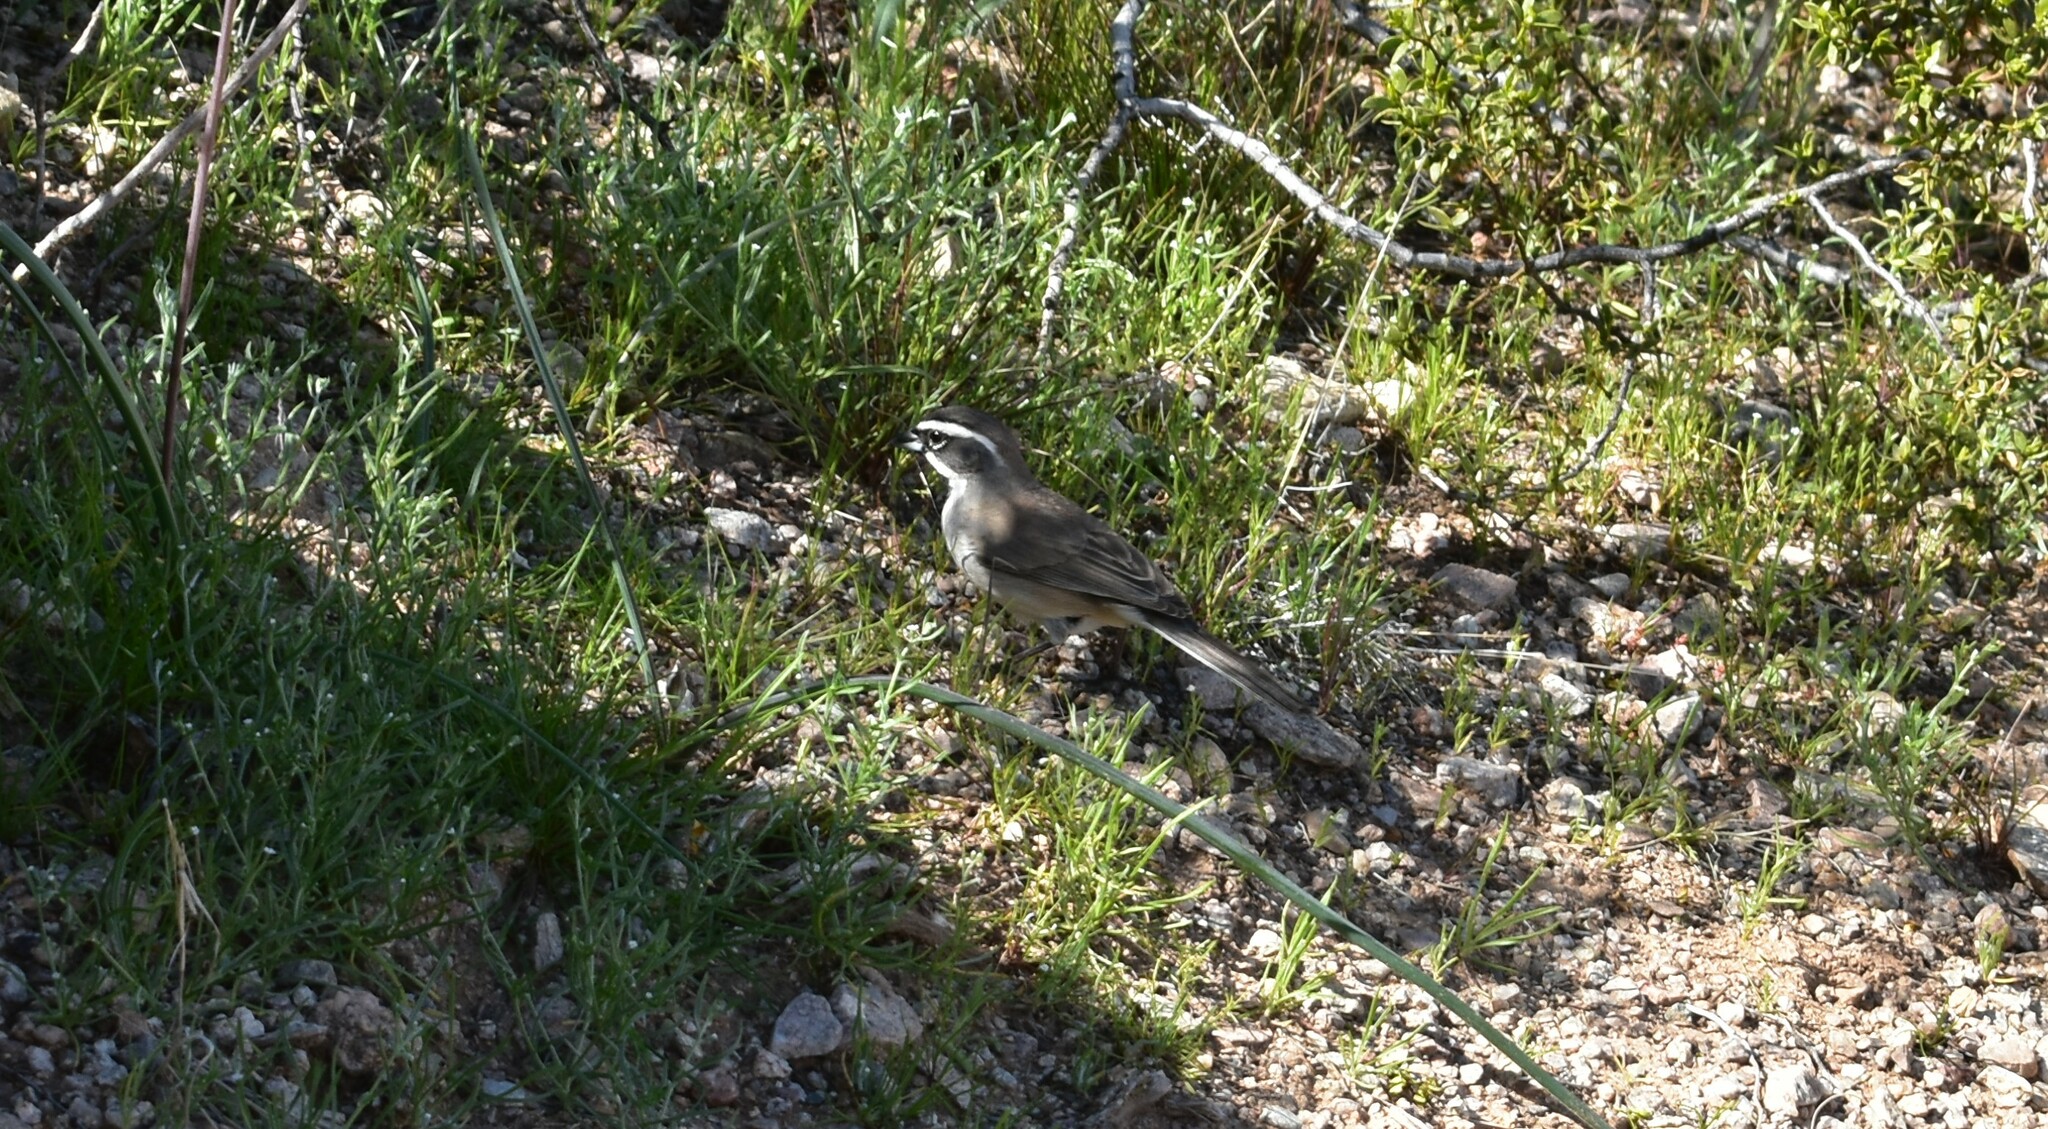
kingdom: Animalia
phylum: Chordata
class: Aves
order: Passeriformes
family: Passerellidae
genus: Amphispiza
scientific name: Amphispiza bilineata
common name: Black-throated sparrow
